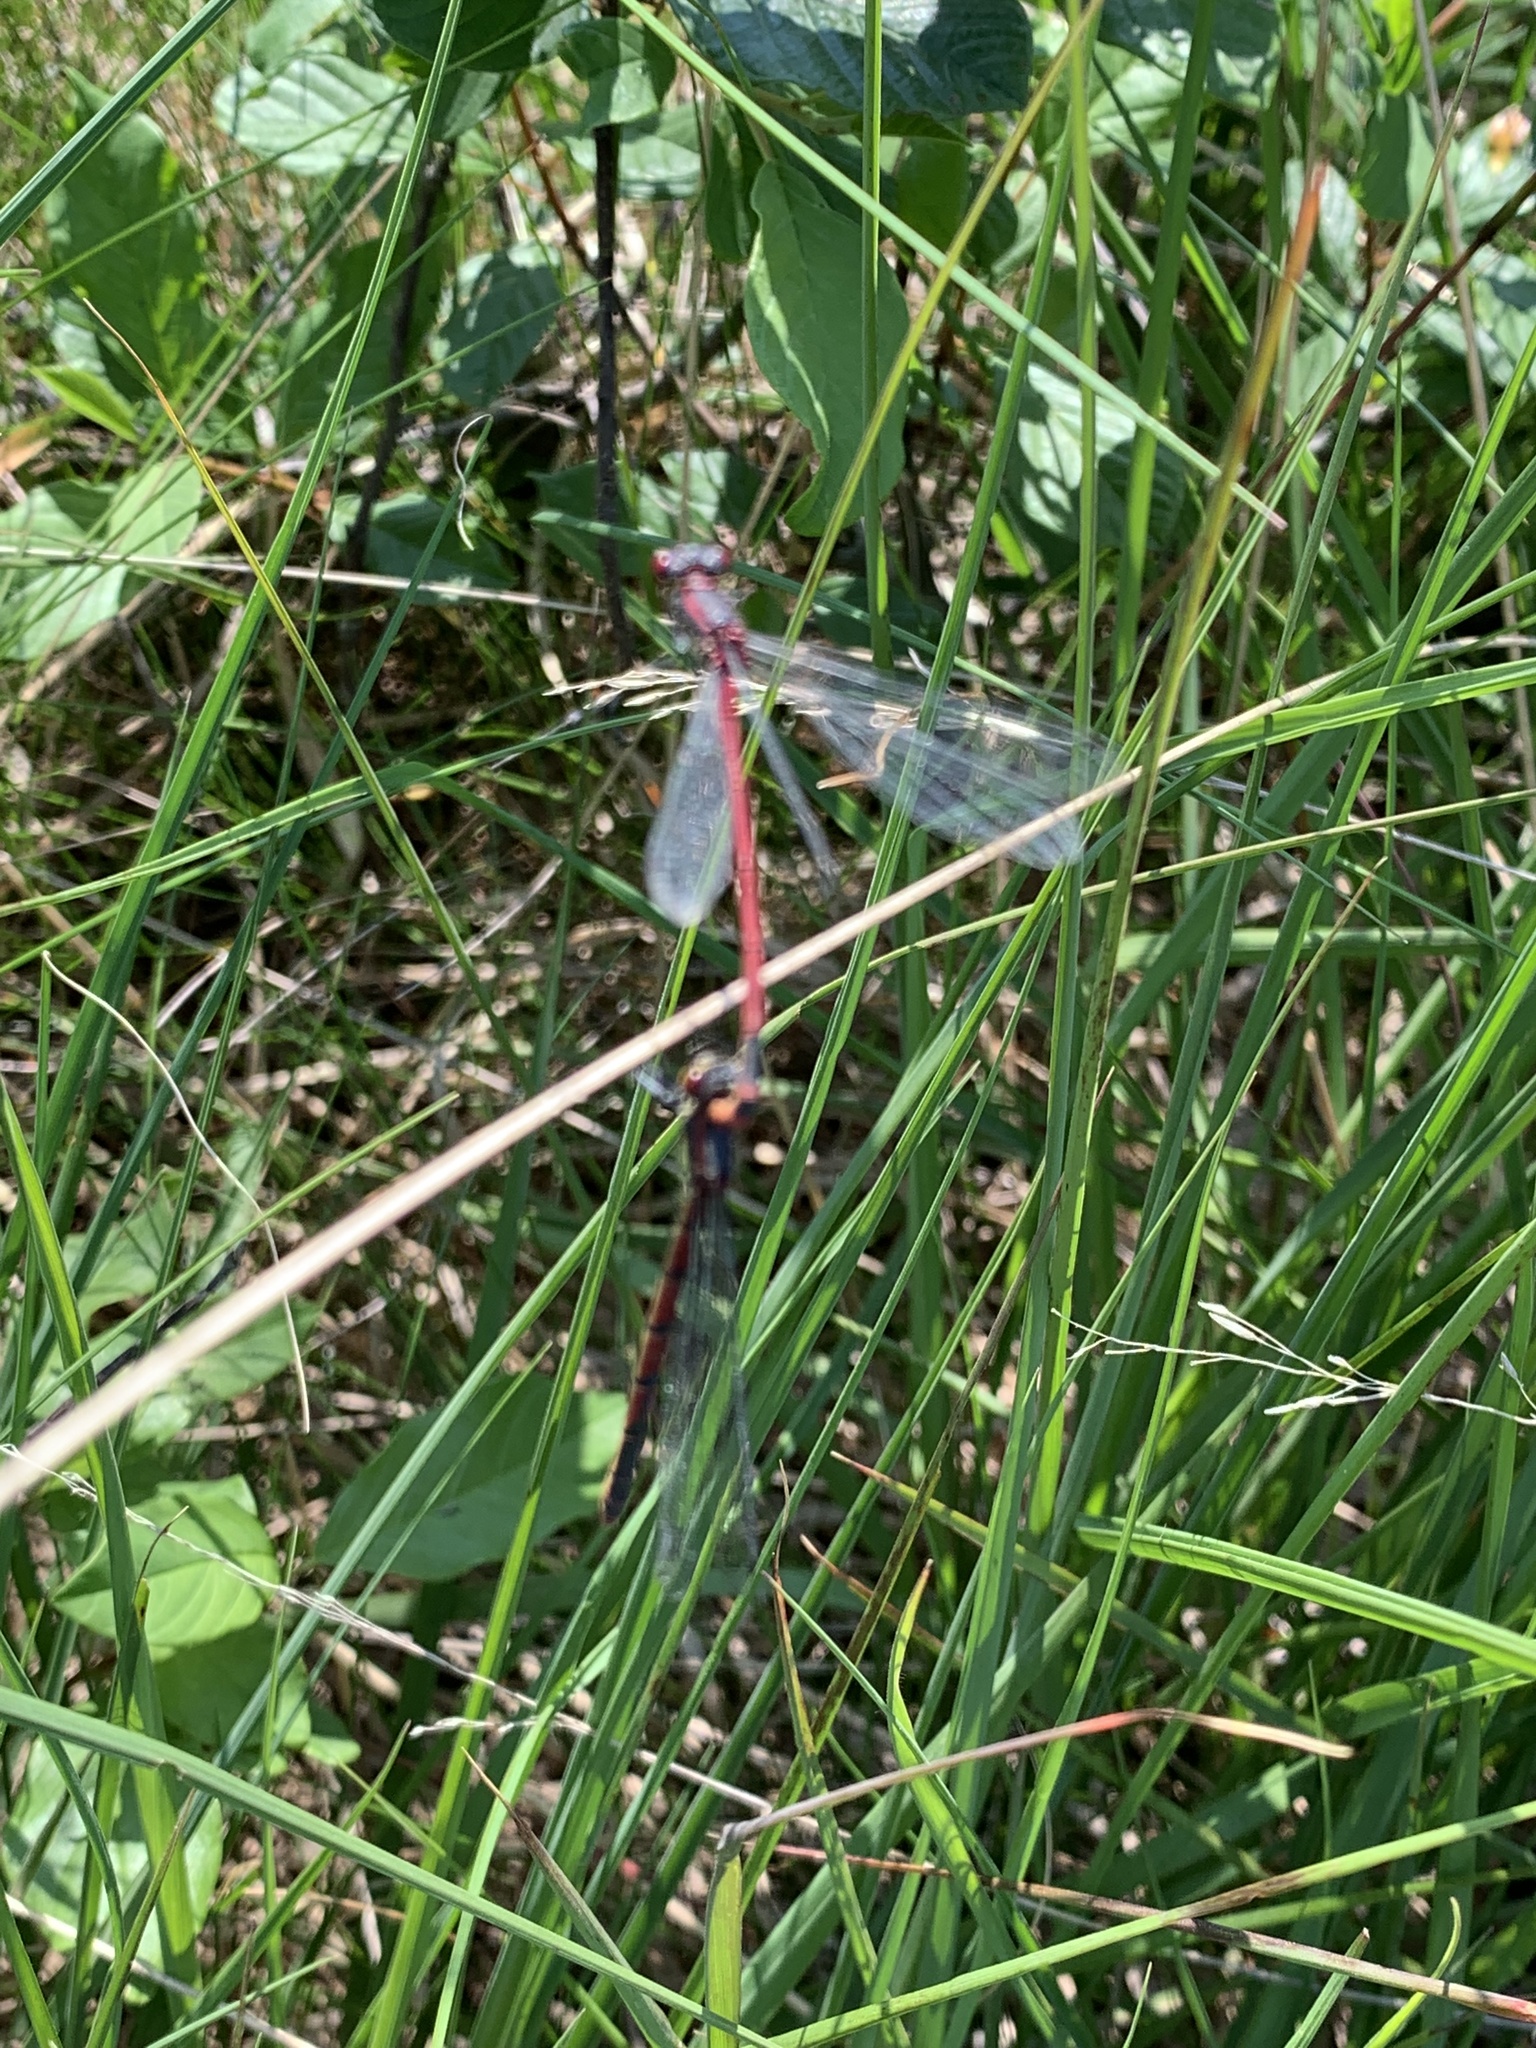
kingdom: Animalia
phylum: Arthropoda
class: Insecta
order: Odonata
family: Coenagrionidae
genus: Pyrrhosoma
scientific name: Pyrrhosoma nymphula
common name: Large red damsel
